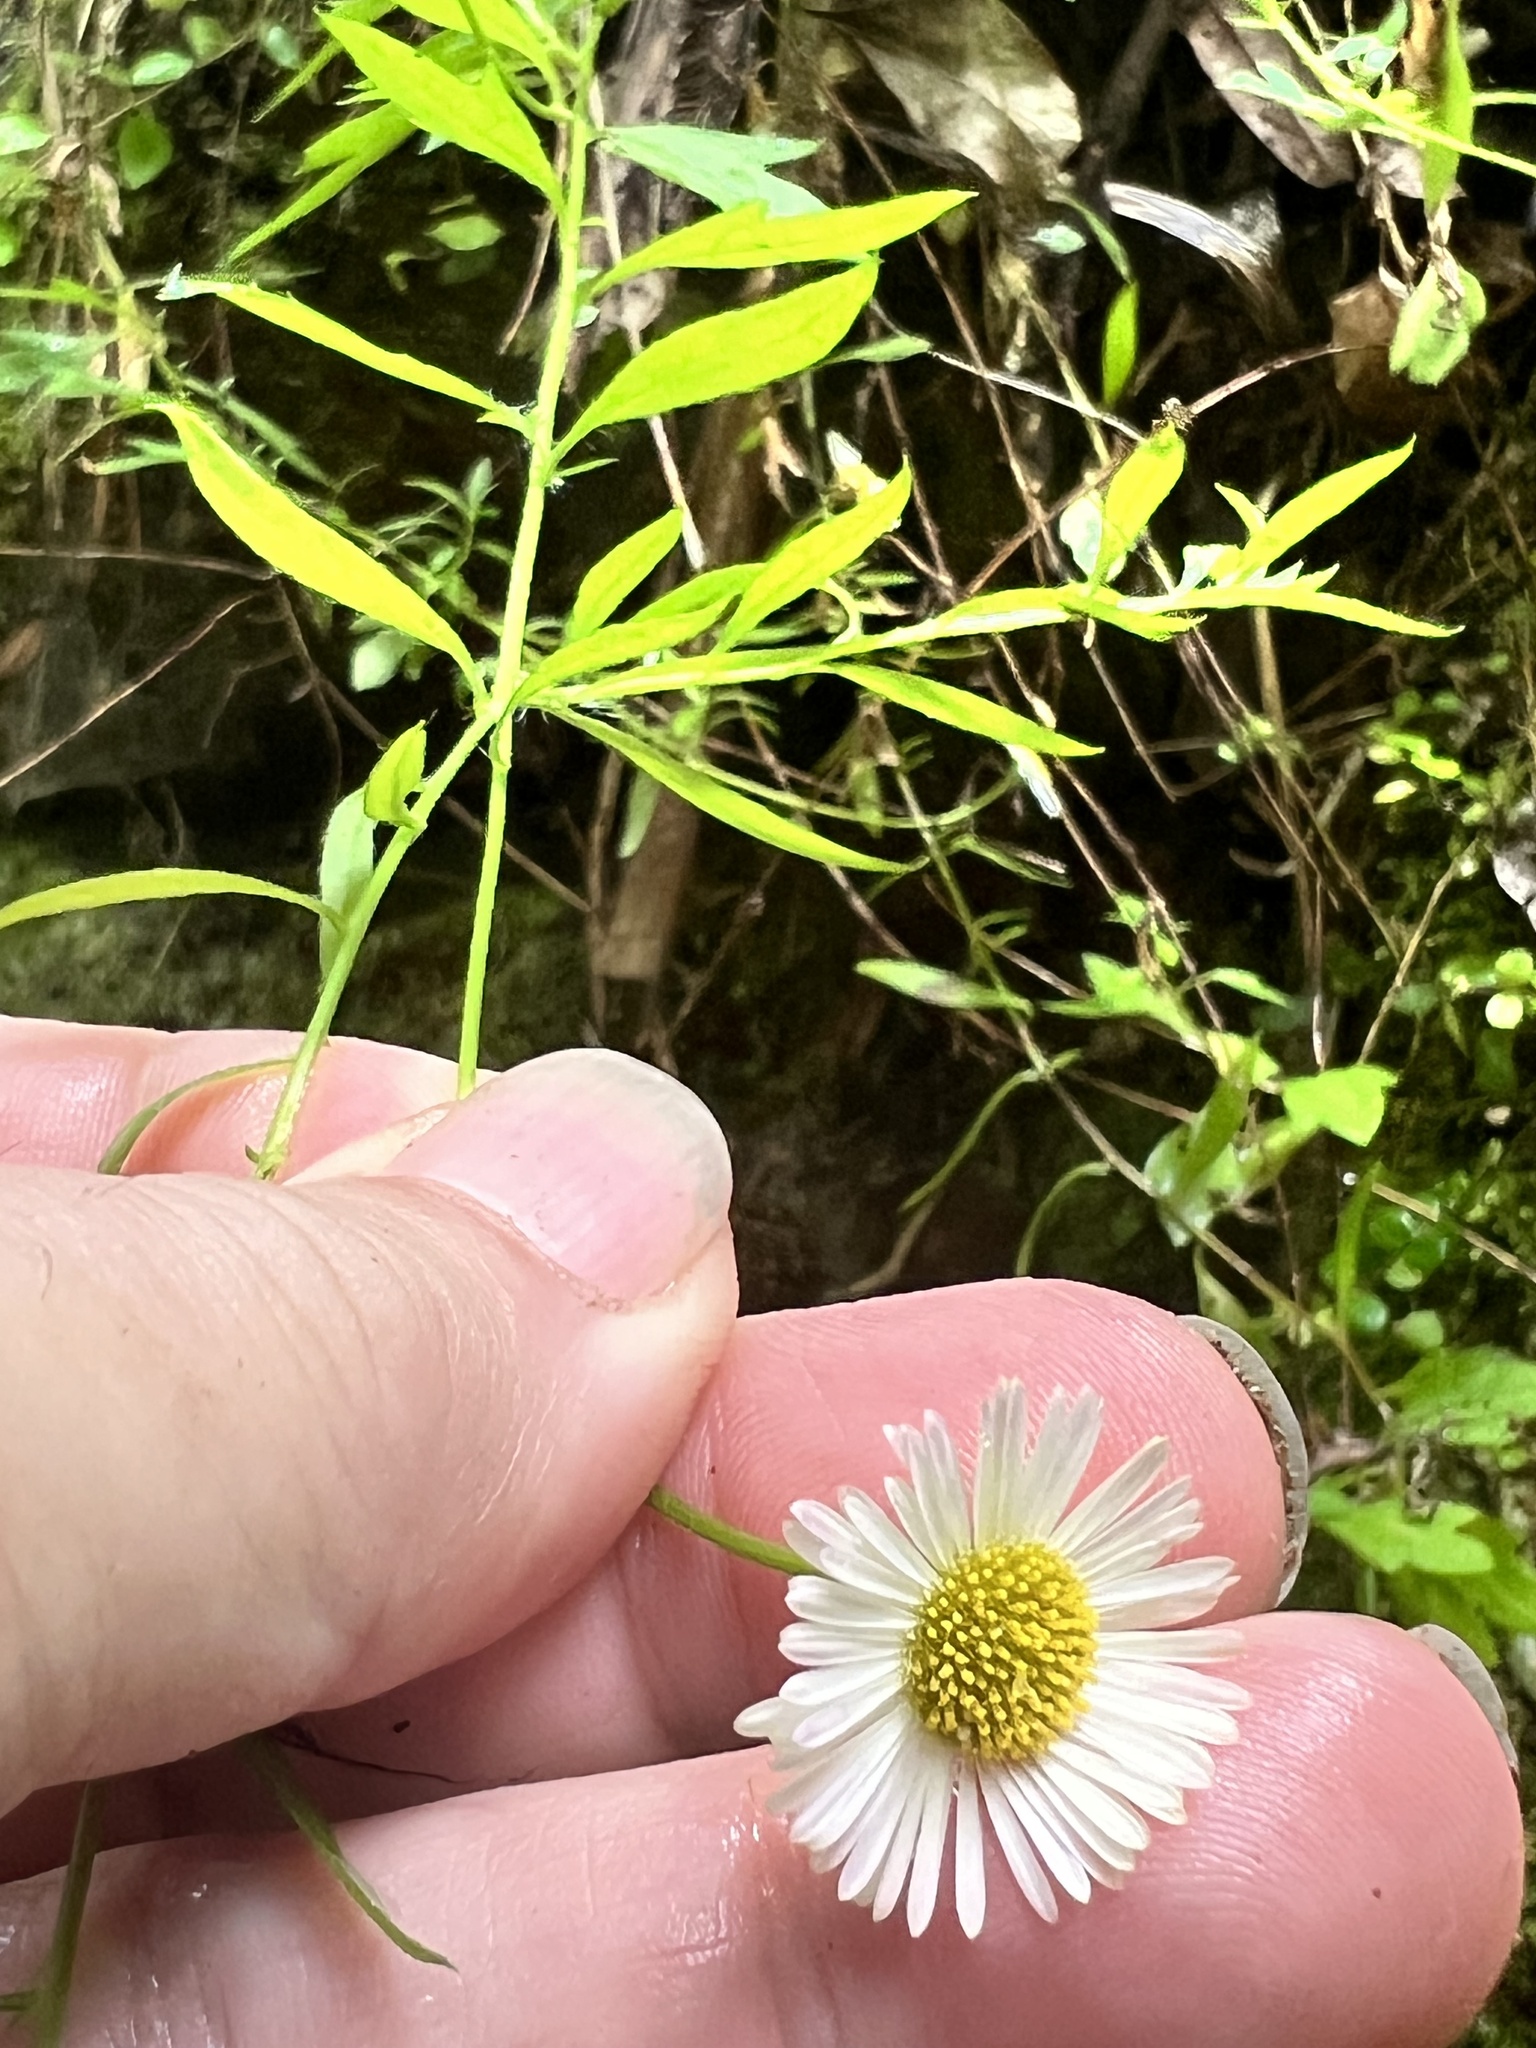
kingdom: Plantae
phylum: Tracheophyta
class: Magnoliopsida
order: Asterales
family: Asteraceae
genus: Erigeron
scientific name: Erigeron karvinskianus
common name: Mexican fleabane
